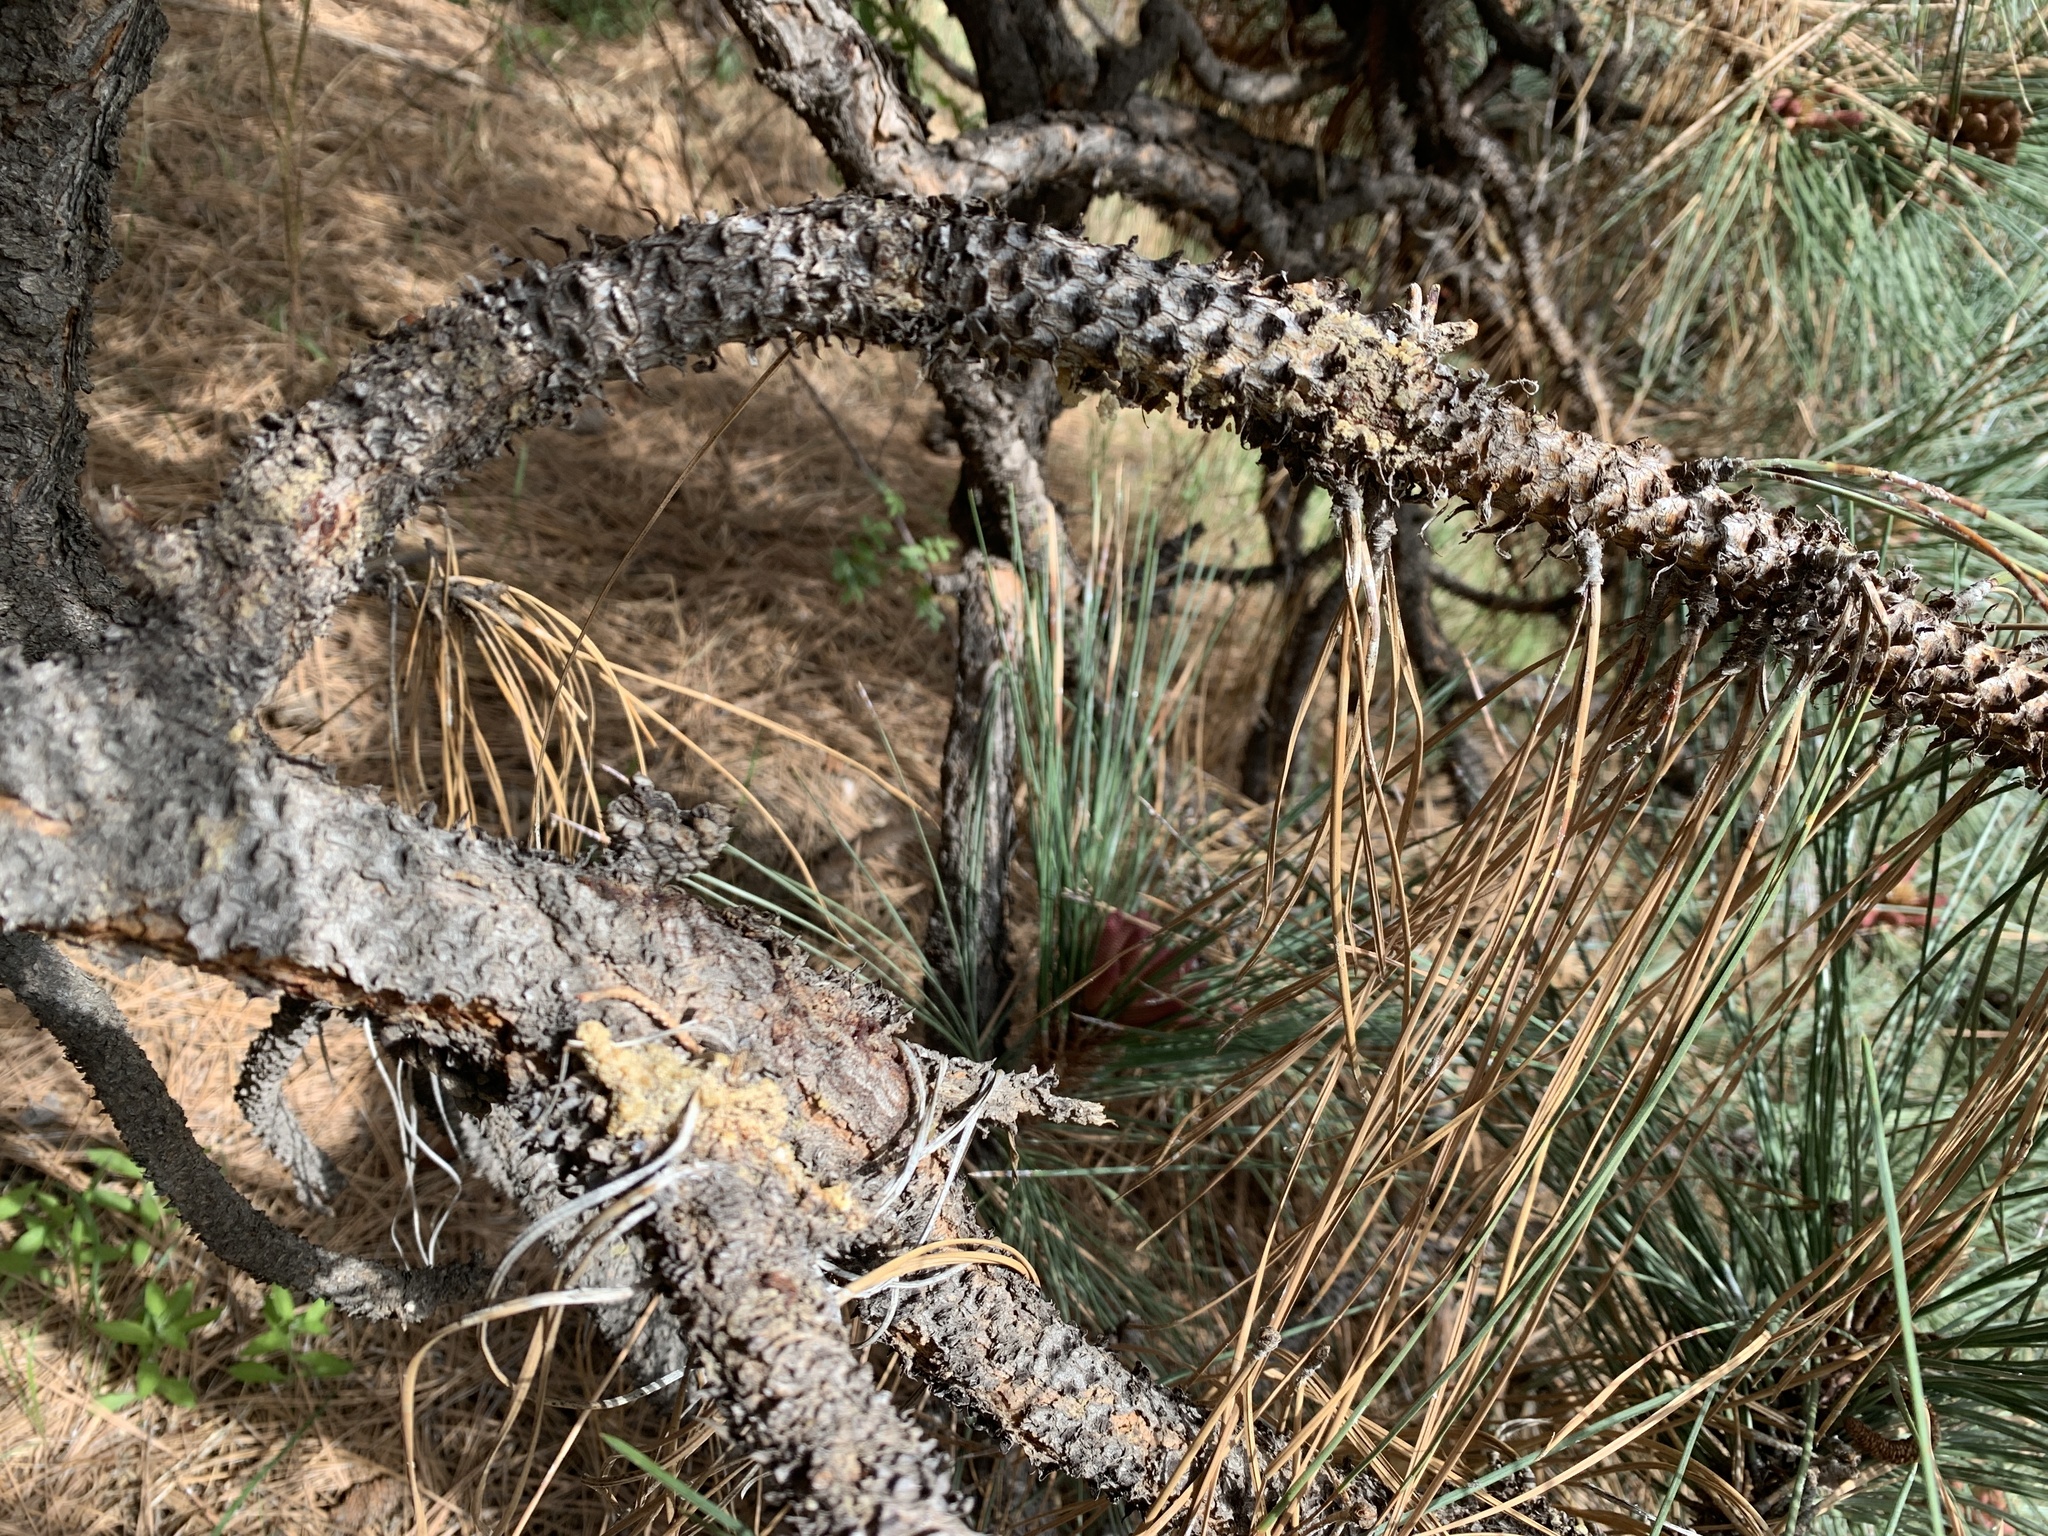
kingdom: Plantae
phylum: Tracheophyta
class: Pinopsida
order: Pinales
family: Pinaceae
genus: Pinus
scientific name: Pinus ponderosa
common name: Western yellow-pine
